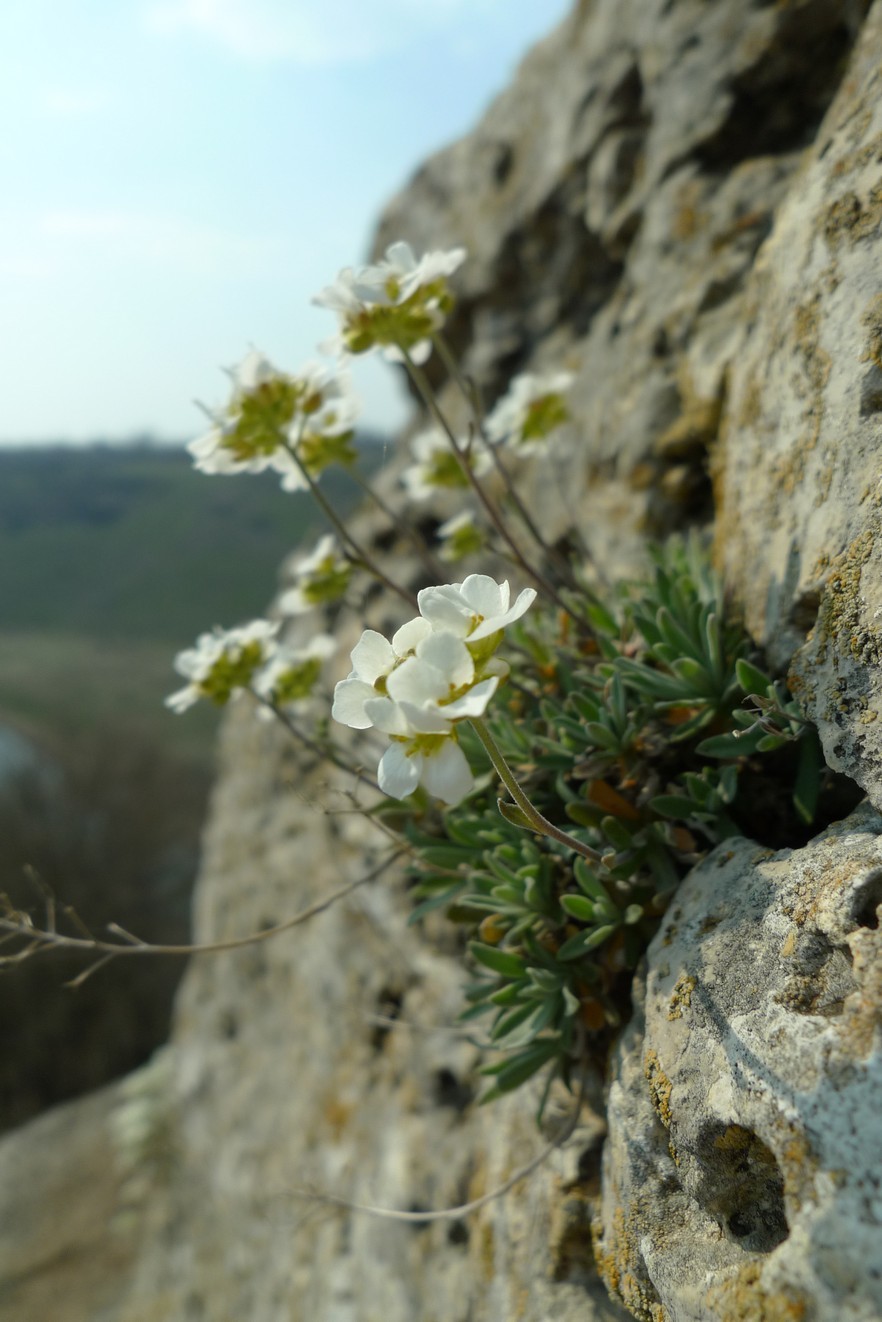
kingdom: Plantae
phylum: Tracheophyta
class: Magnoliopsida
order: Brassicales
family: Brassicaceae
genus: Draba
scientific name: Draba hyperborea
